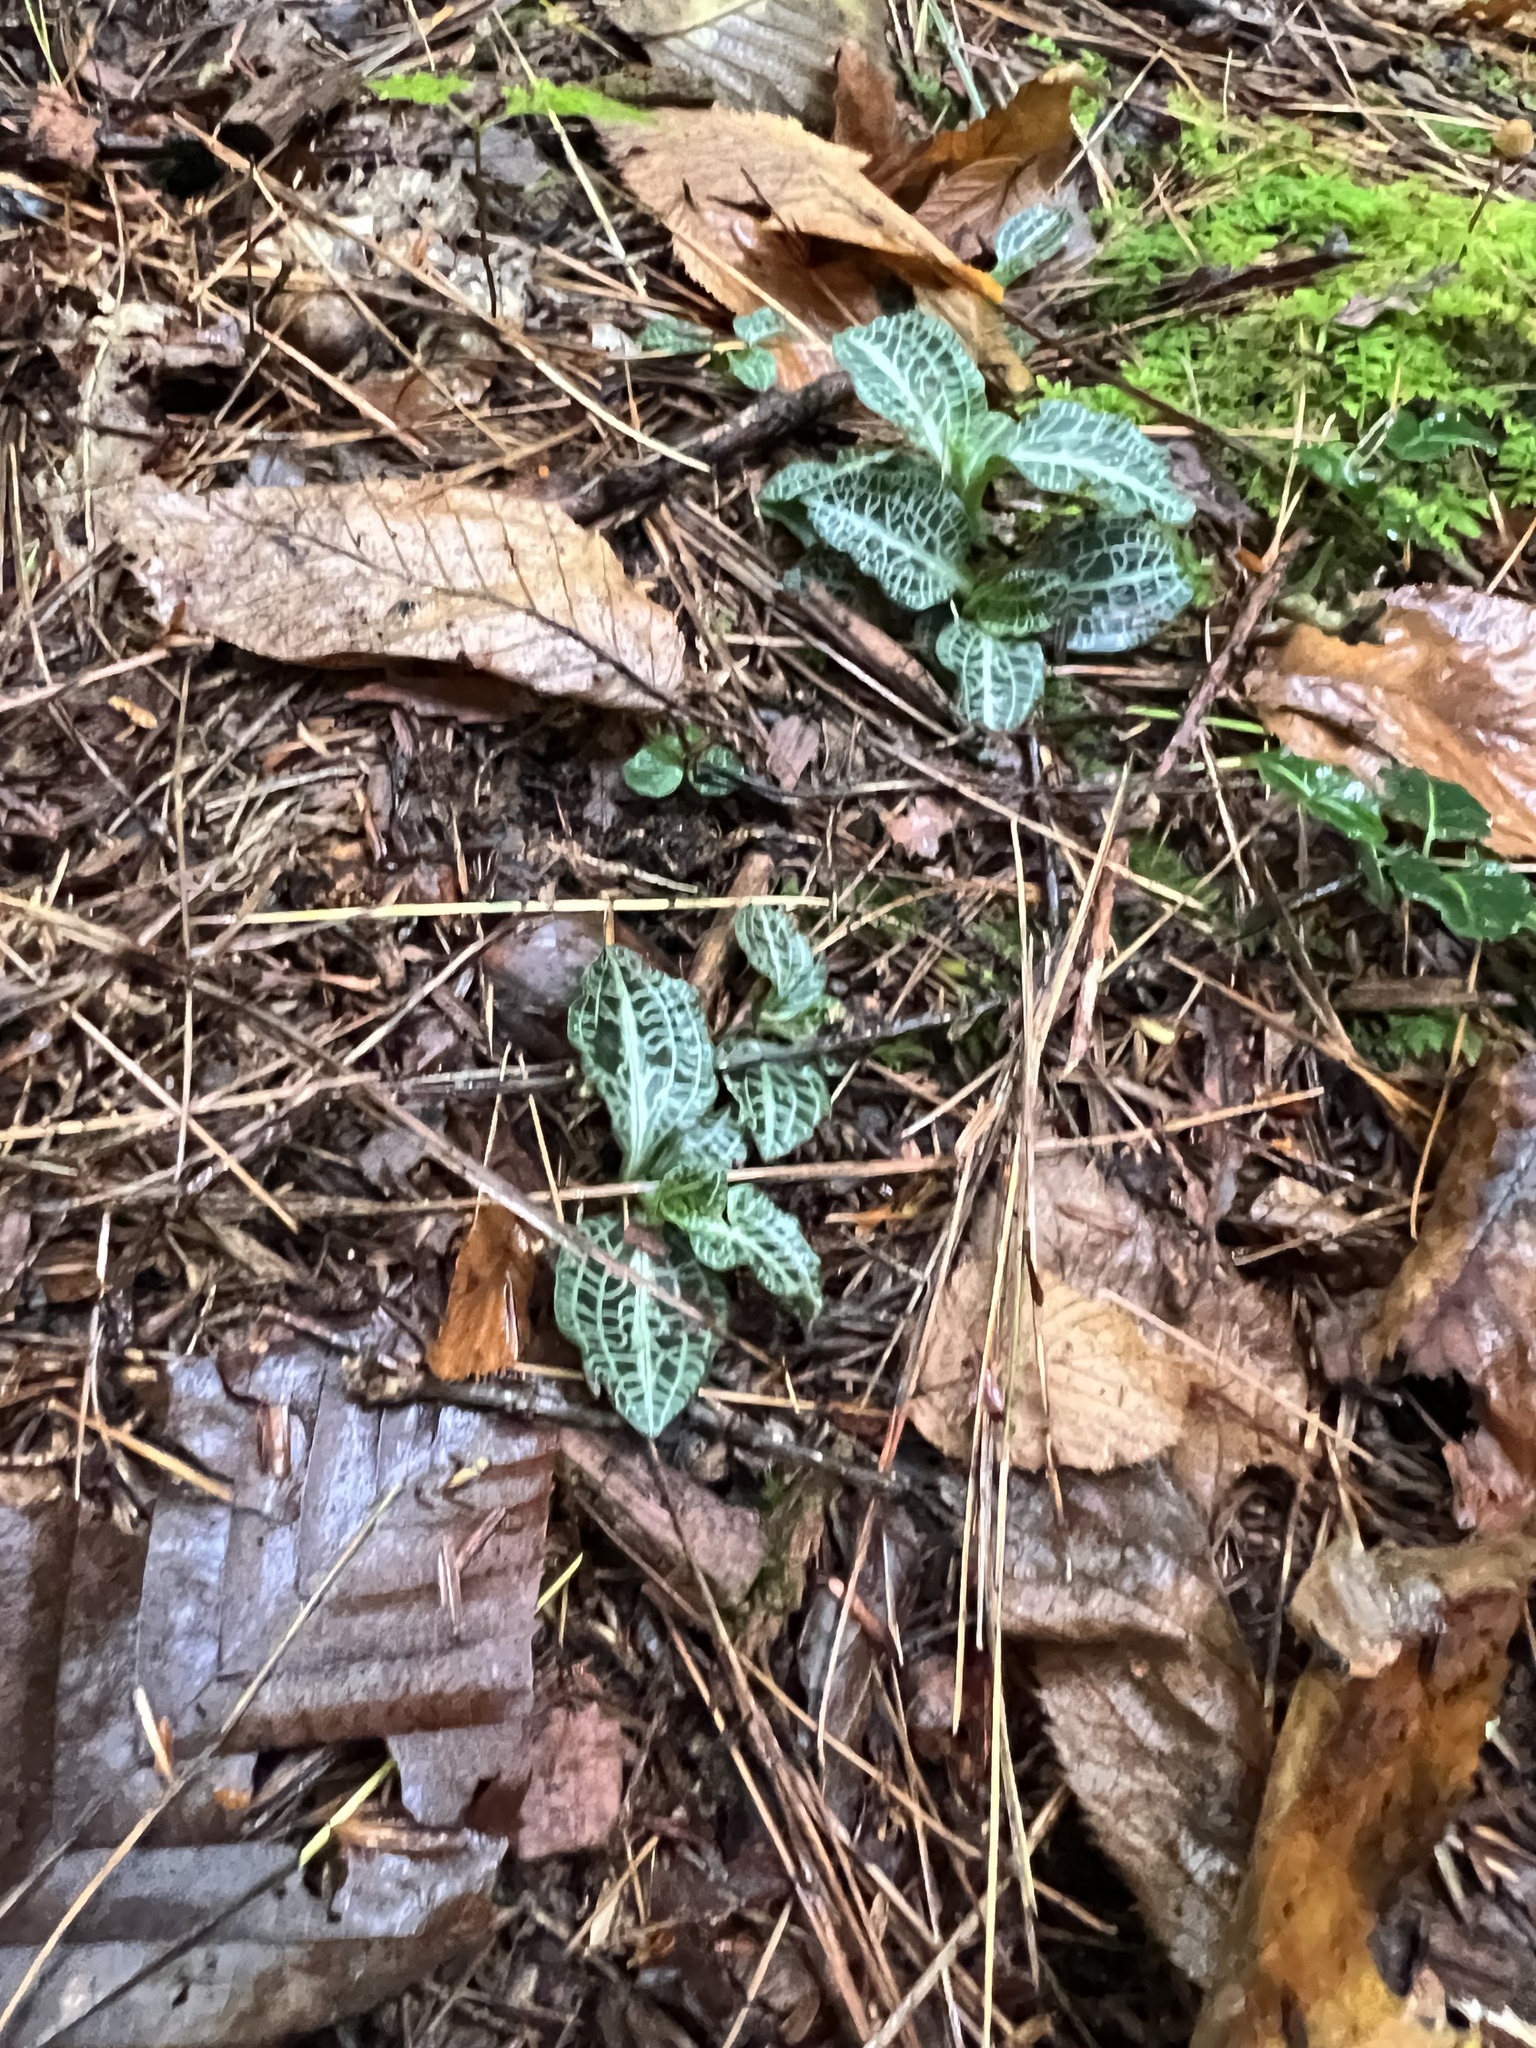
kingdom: Plantae
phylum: Tracheophyta
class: Liliopsida
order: Asparagales
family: Orchidaceae
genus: Goodyera
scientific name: Goodyera pubescens
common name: Downy rattlesnake-plantain
